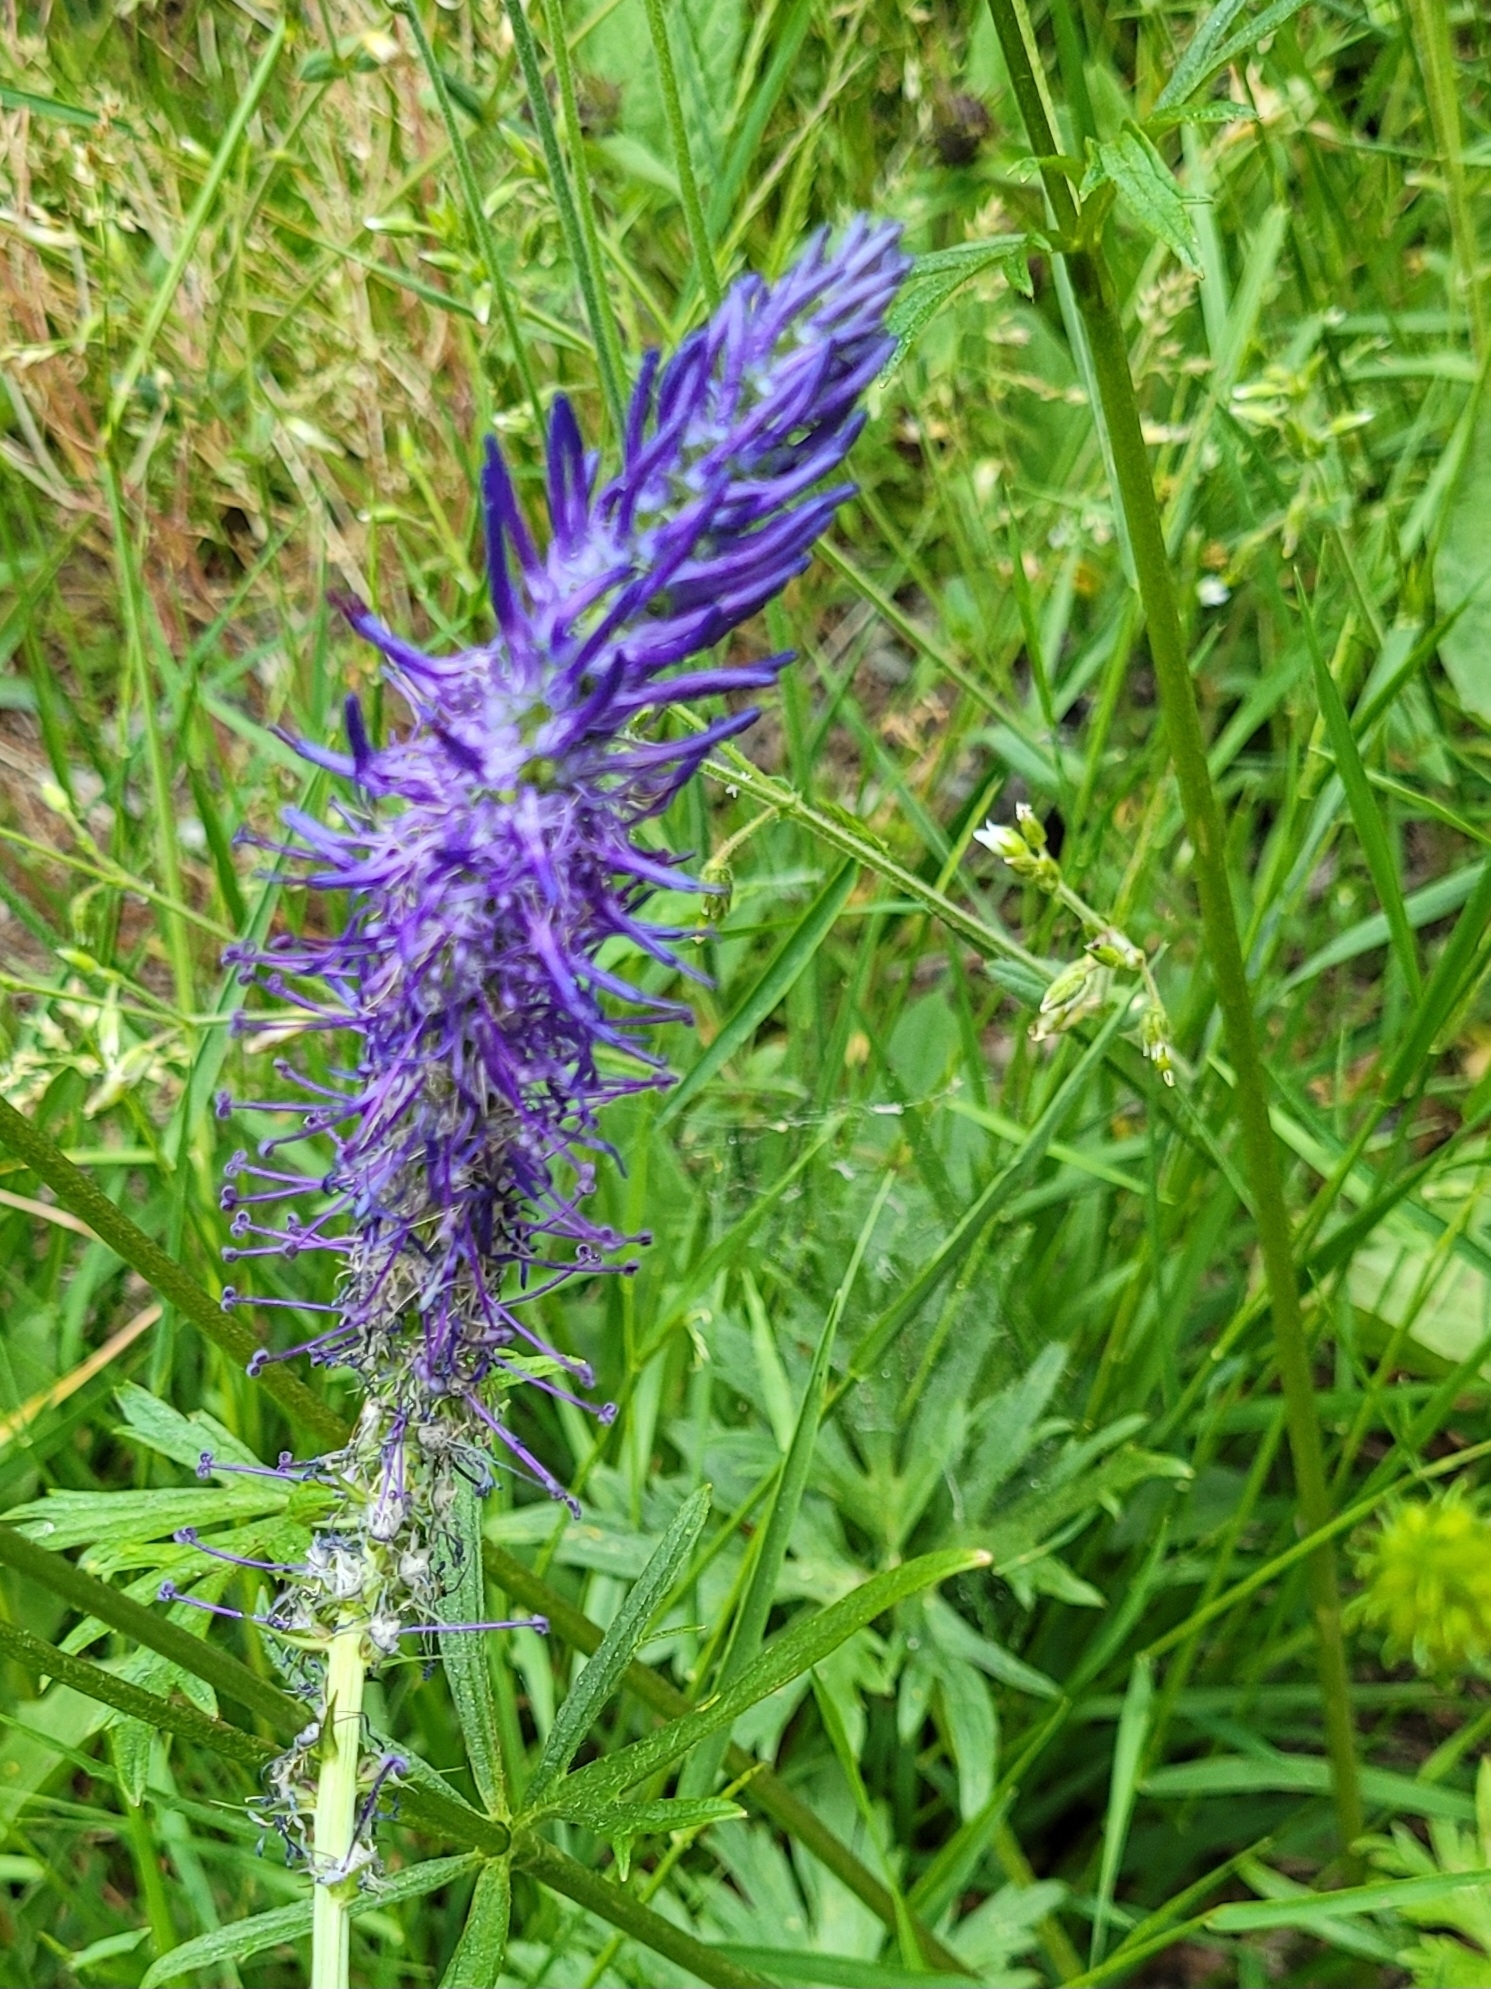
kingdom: Plantae
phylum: Tracheophyta
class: Magnoliopsida
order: Asterales
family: Campanulaceae
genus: Phyteuma
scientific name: Phyteuma persicifolium
